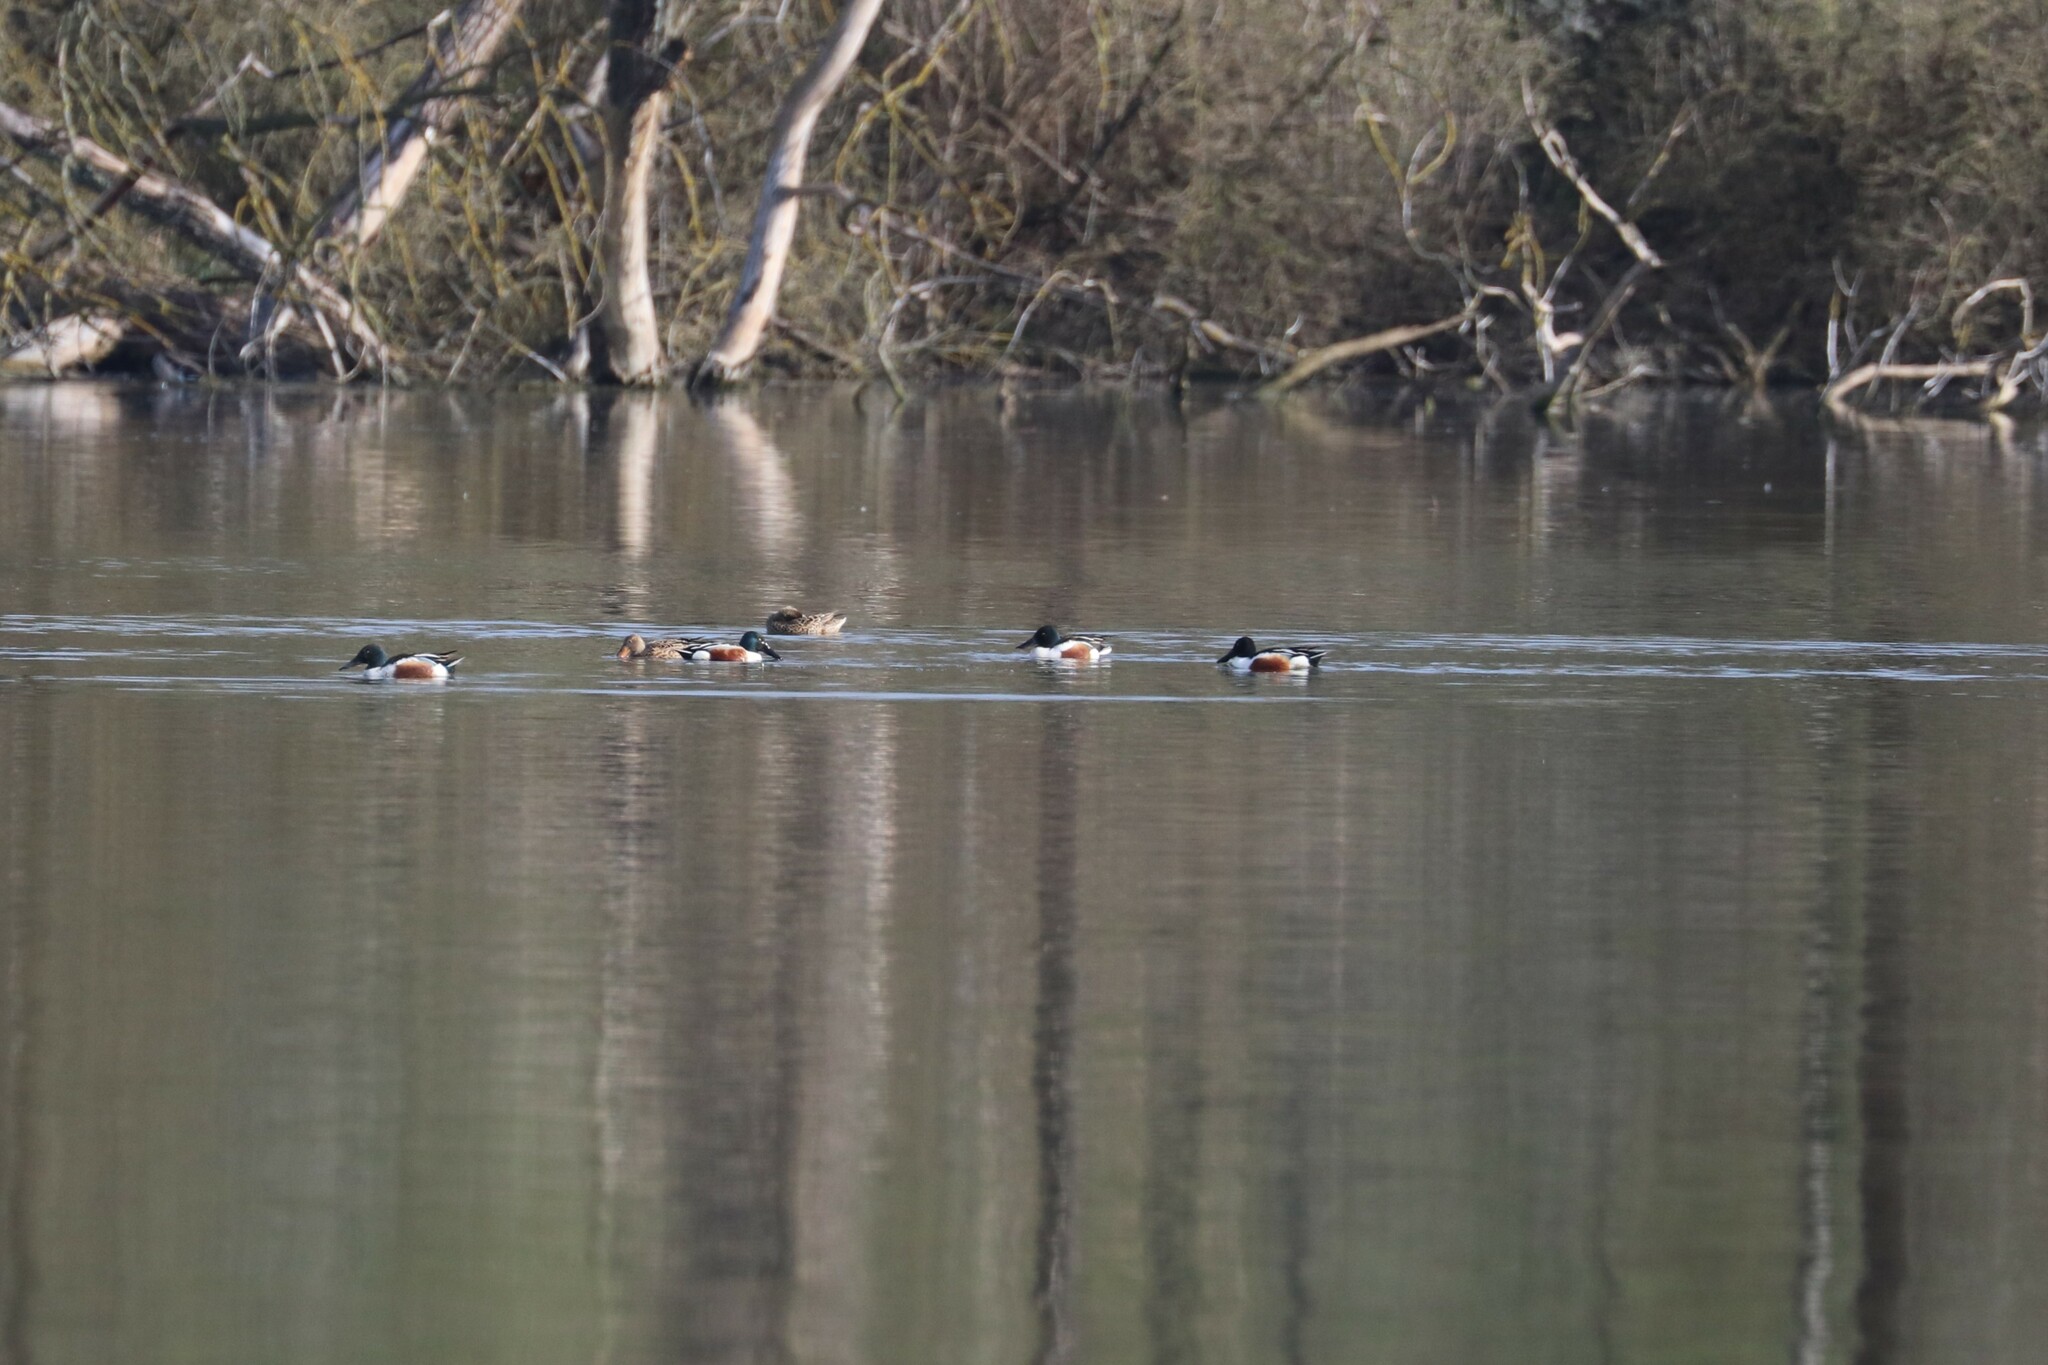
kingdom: Animalia
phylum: Chordata
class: Aves
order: Anseriformes
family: Anatidae
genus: Spatula
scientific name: Spatula clypeata
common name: Northern shoveler
